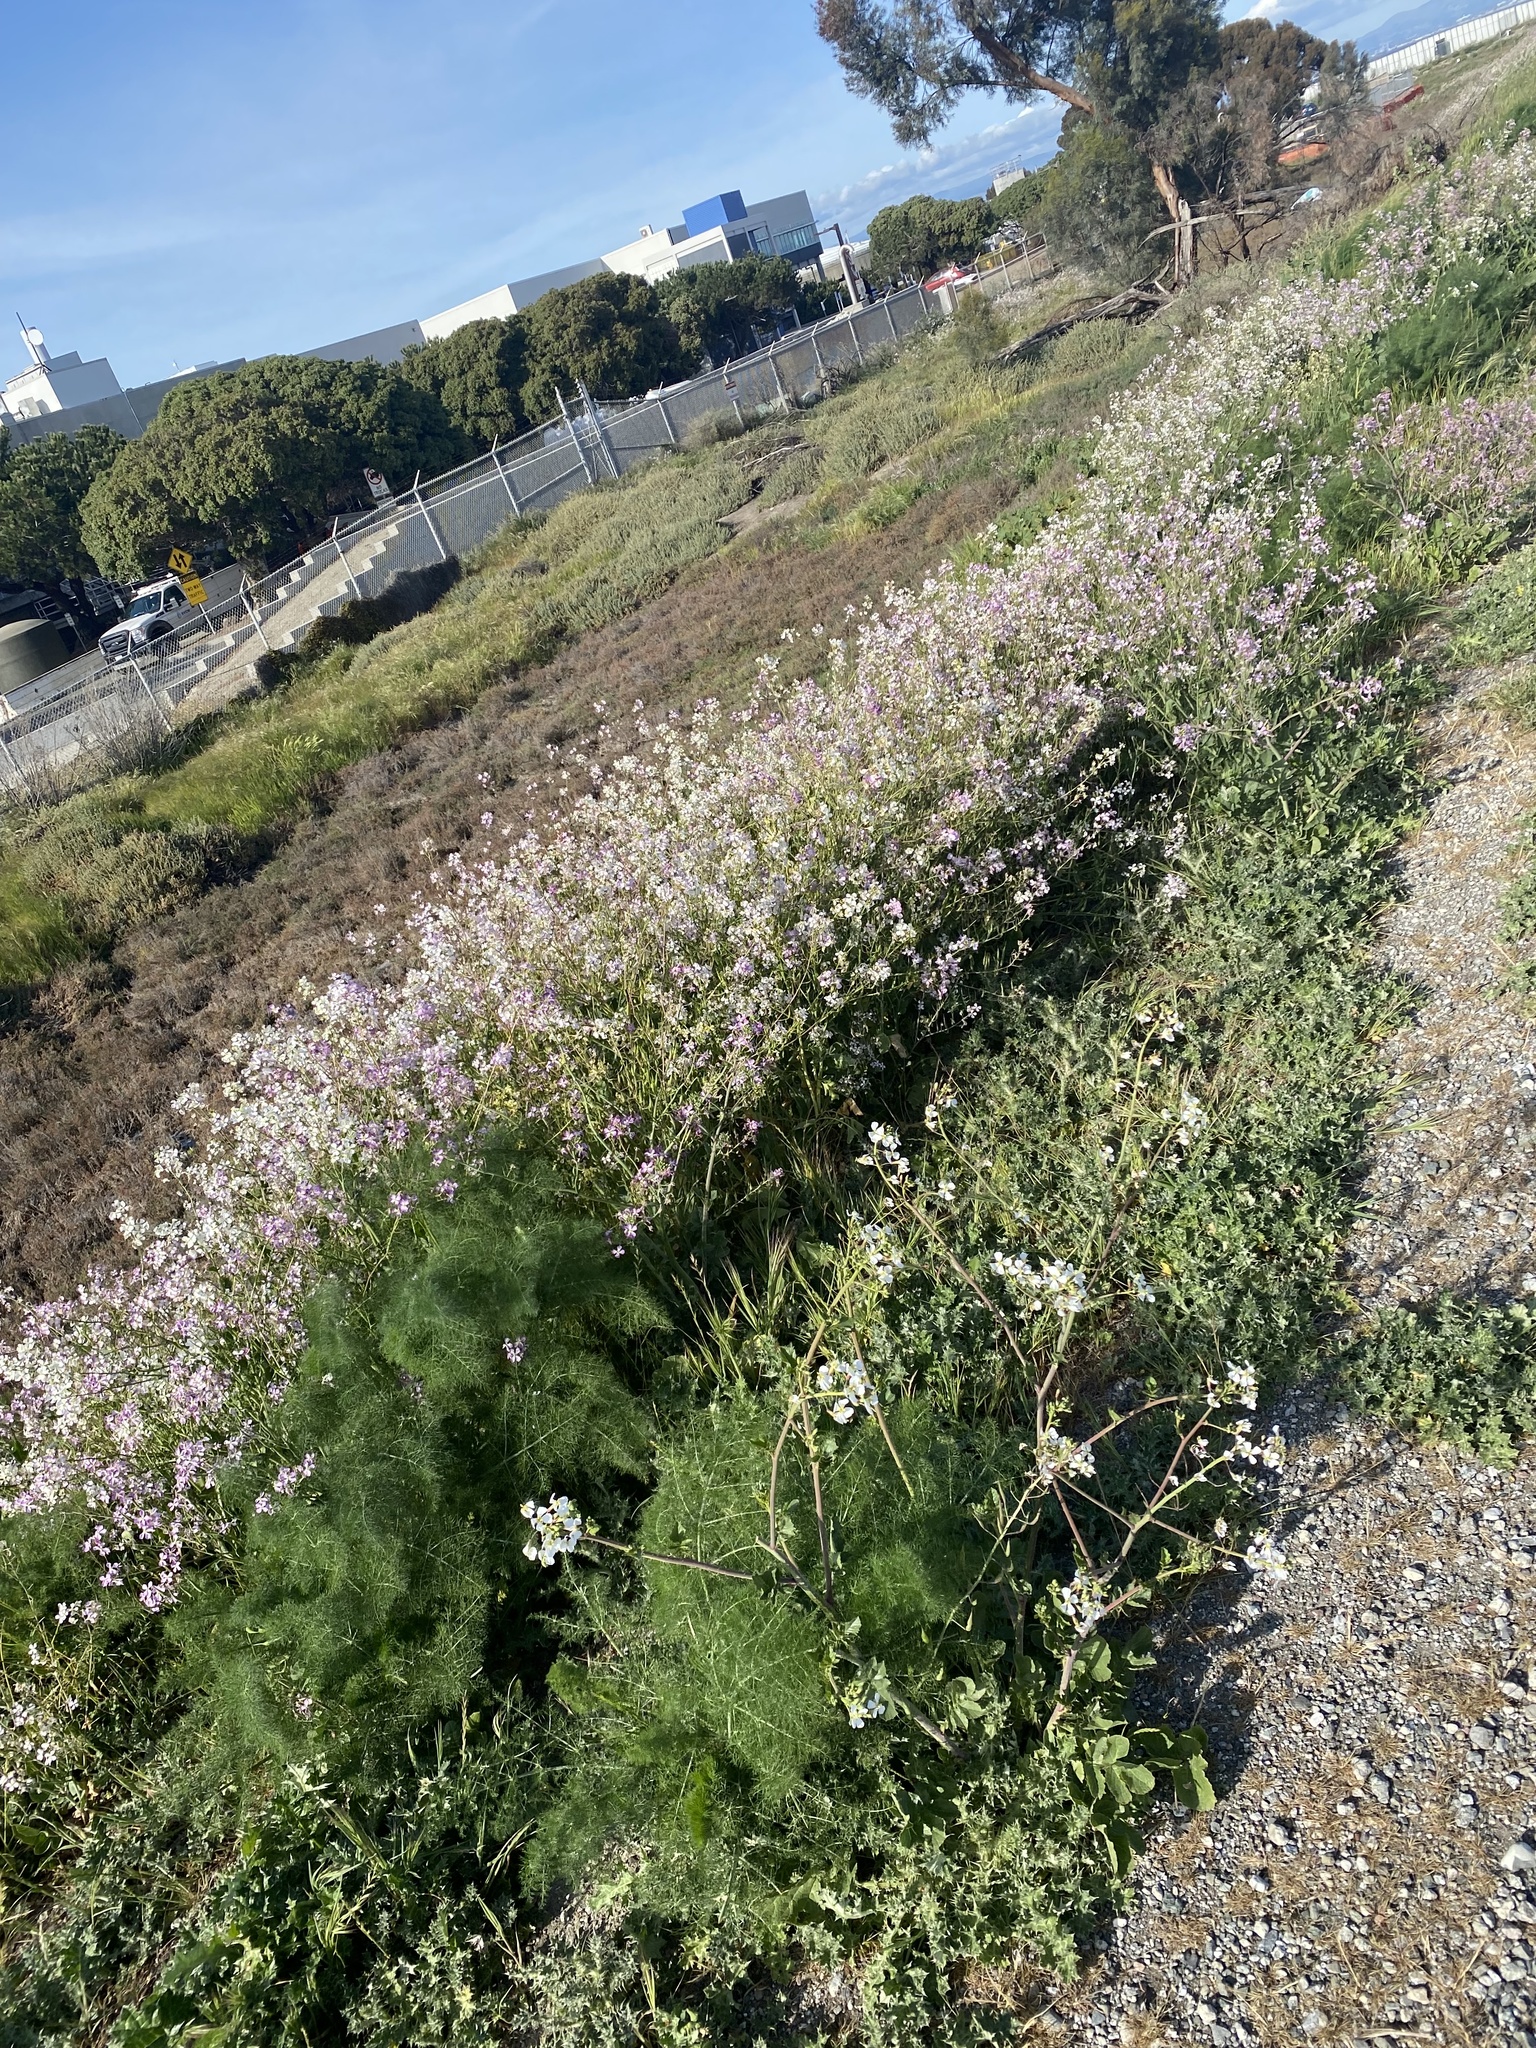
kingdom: Plantae
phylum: Tracheophyta
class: Magnoliopsida
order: Brassicales
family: Brassicaceae
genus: Raphanus
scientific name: Raphanus sativus
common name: Cultivated radish
